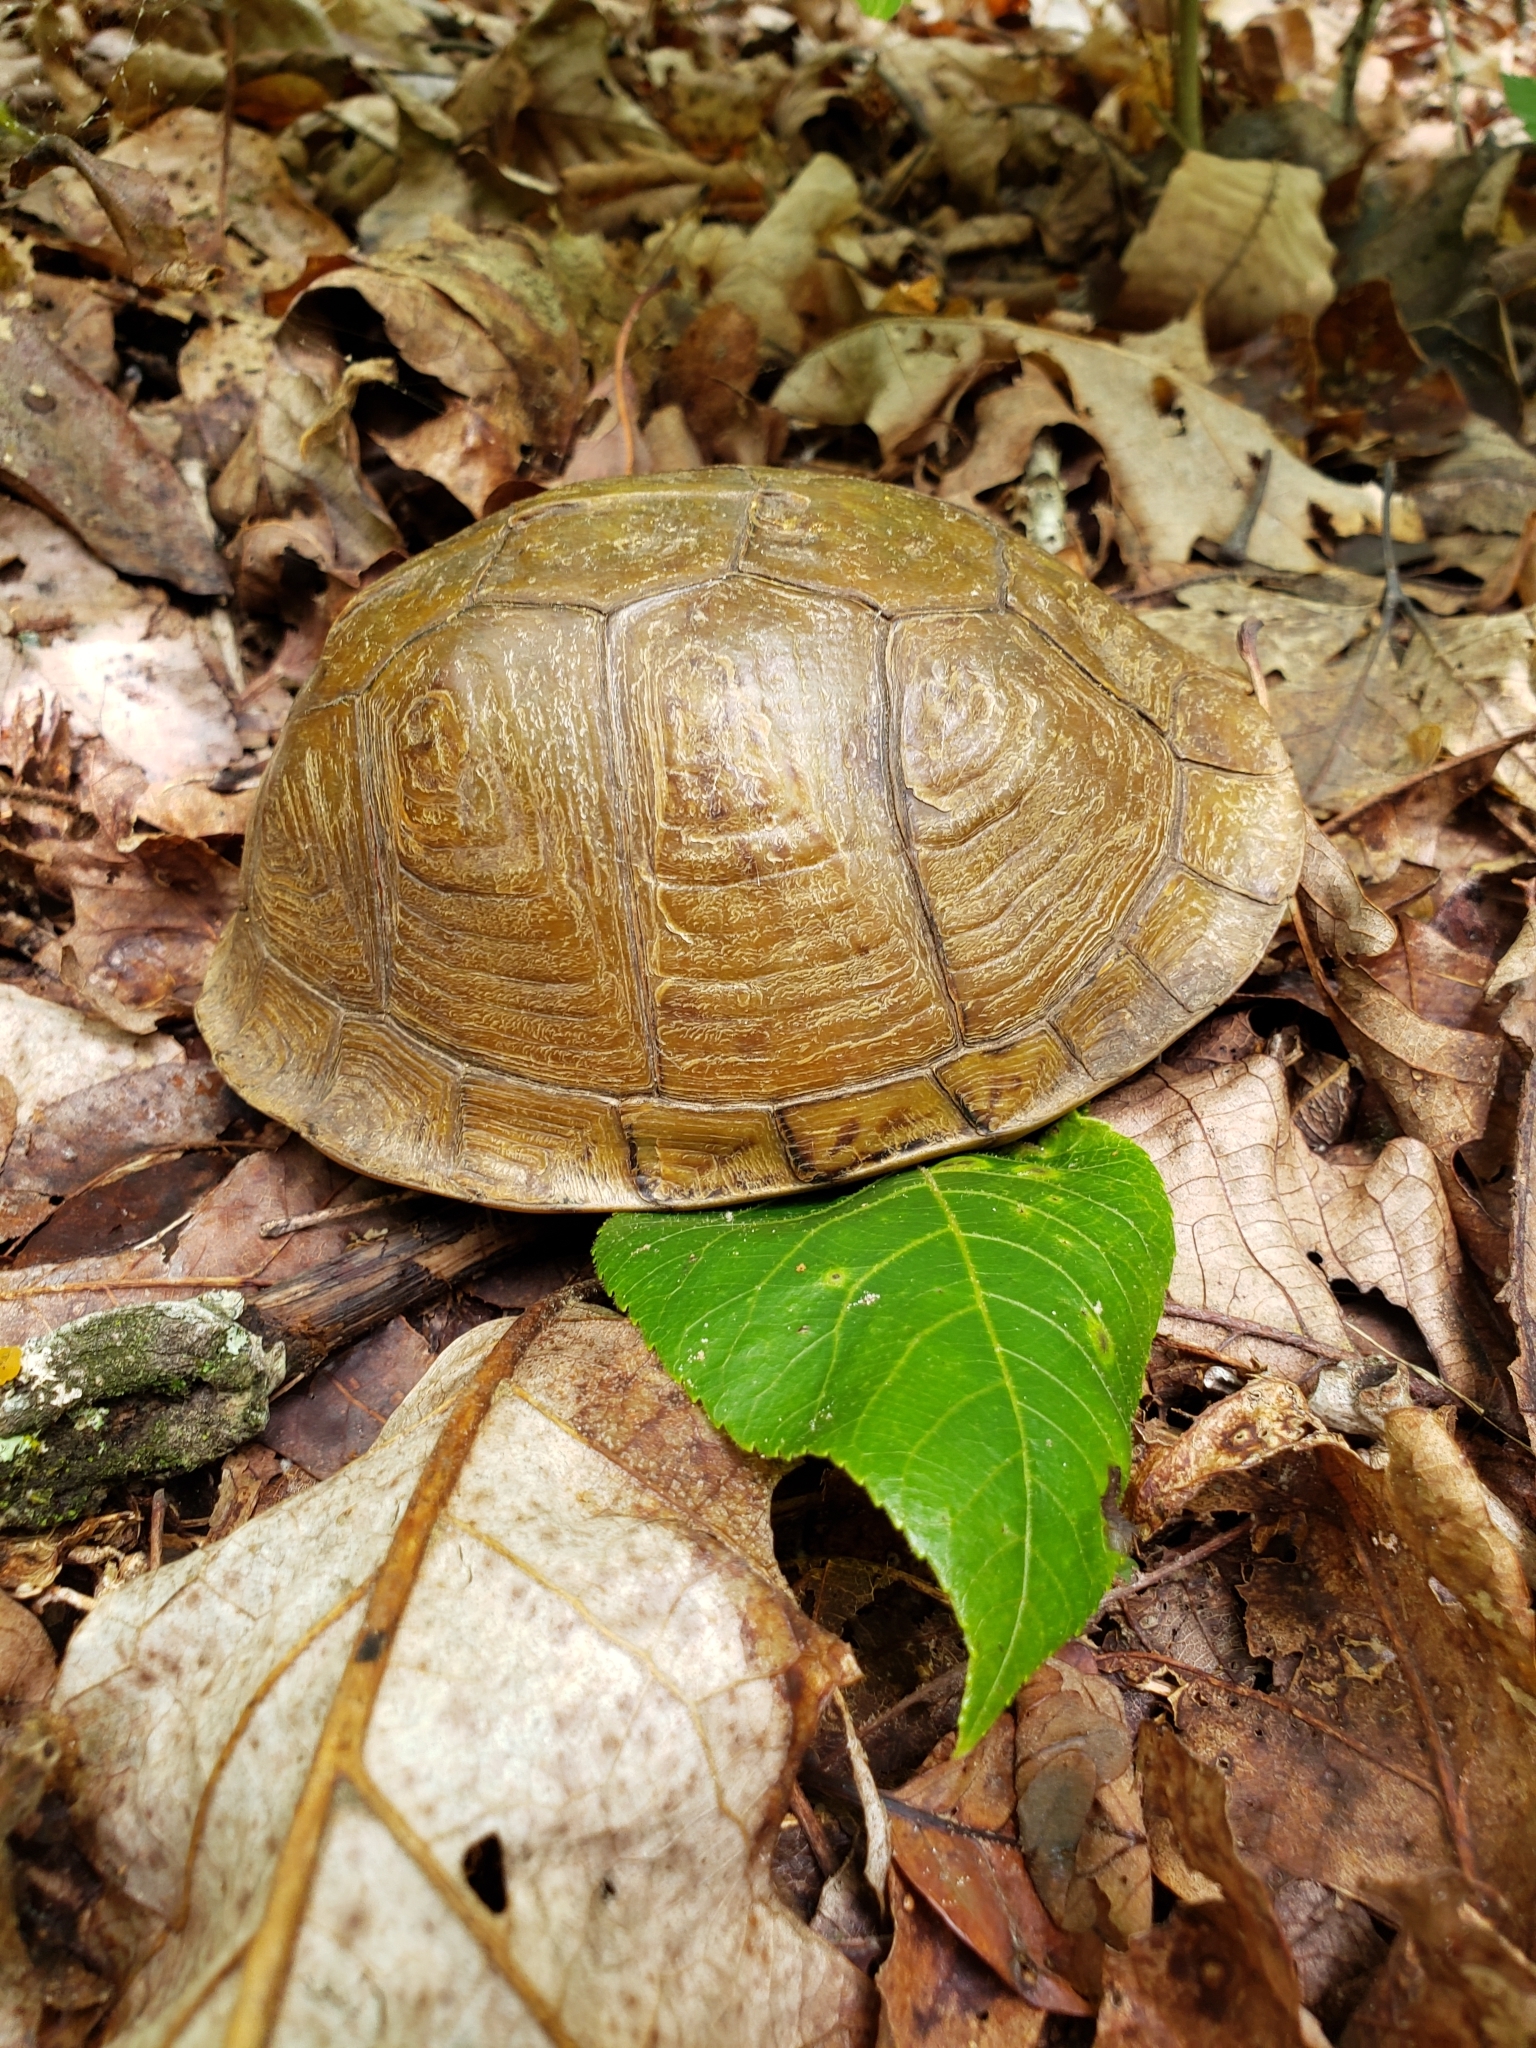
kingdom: Animalia
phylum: Chordata
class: Testudines
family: Emydidae
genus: Terrapene
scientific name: Terrapene carolina
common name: Common box turtle
